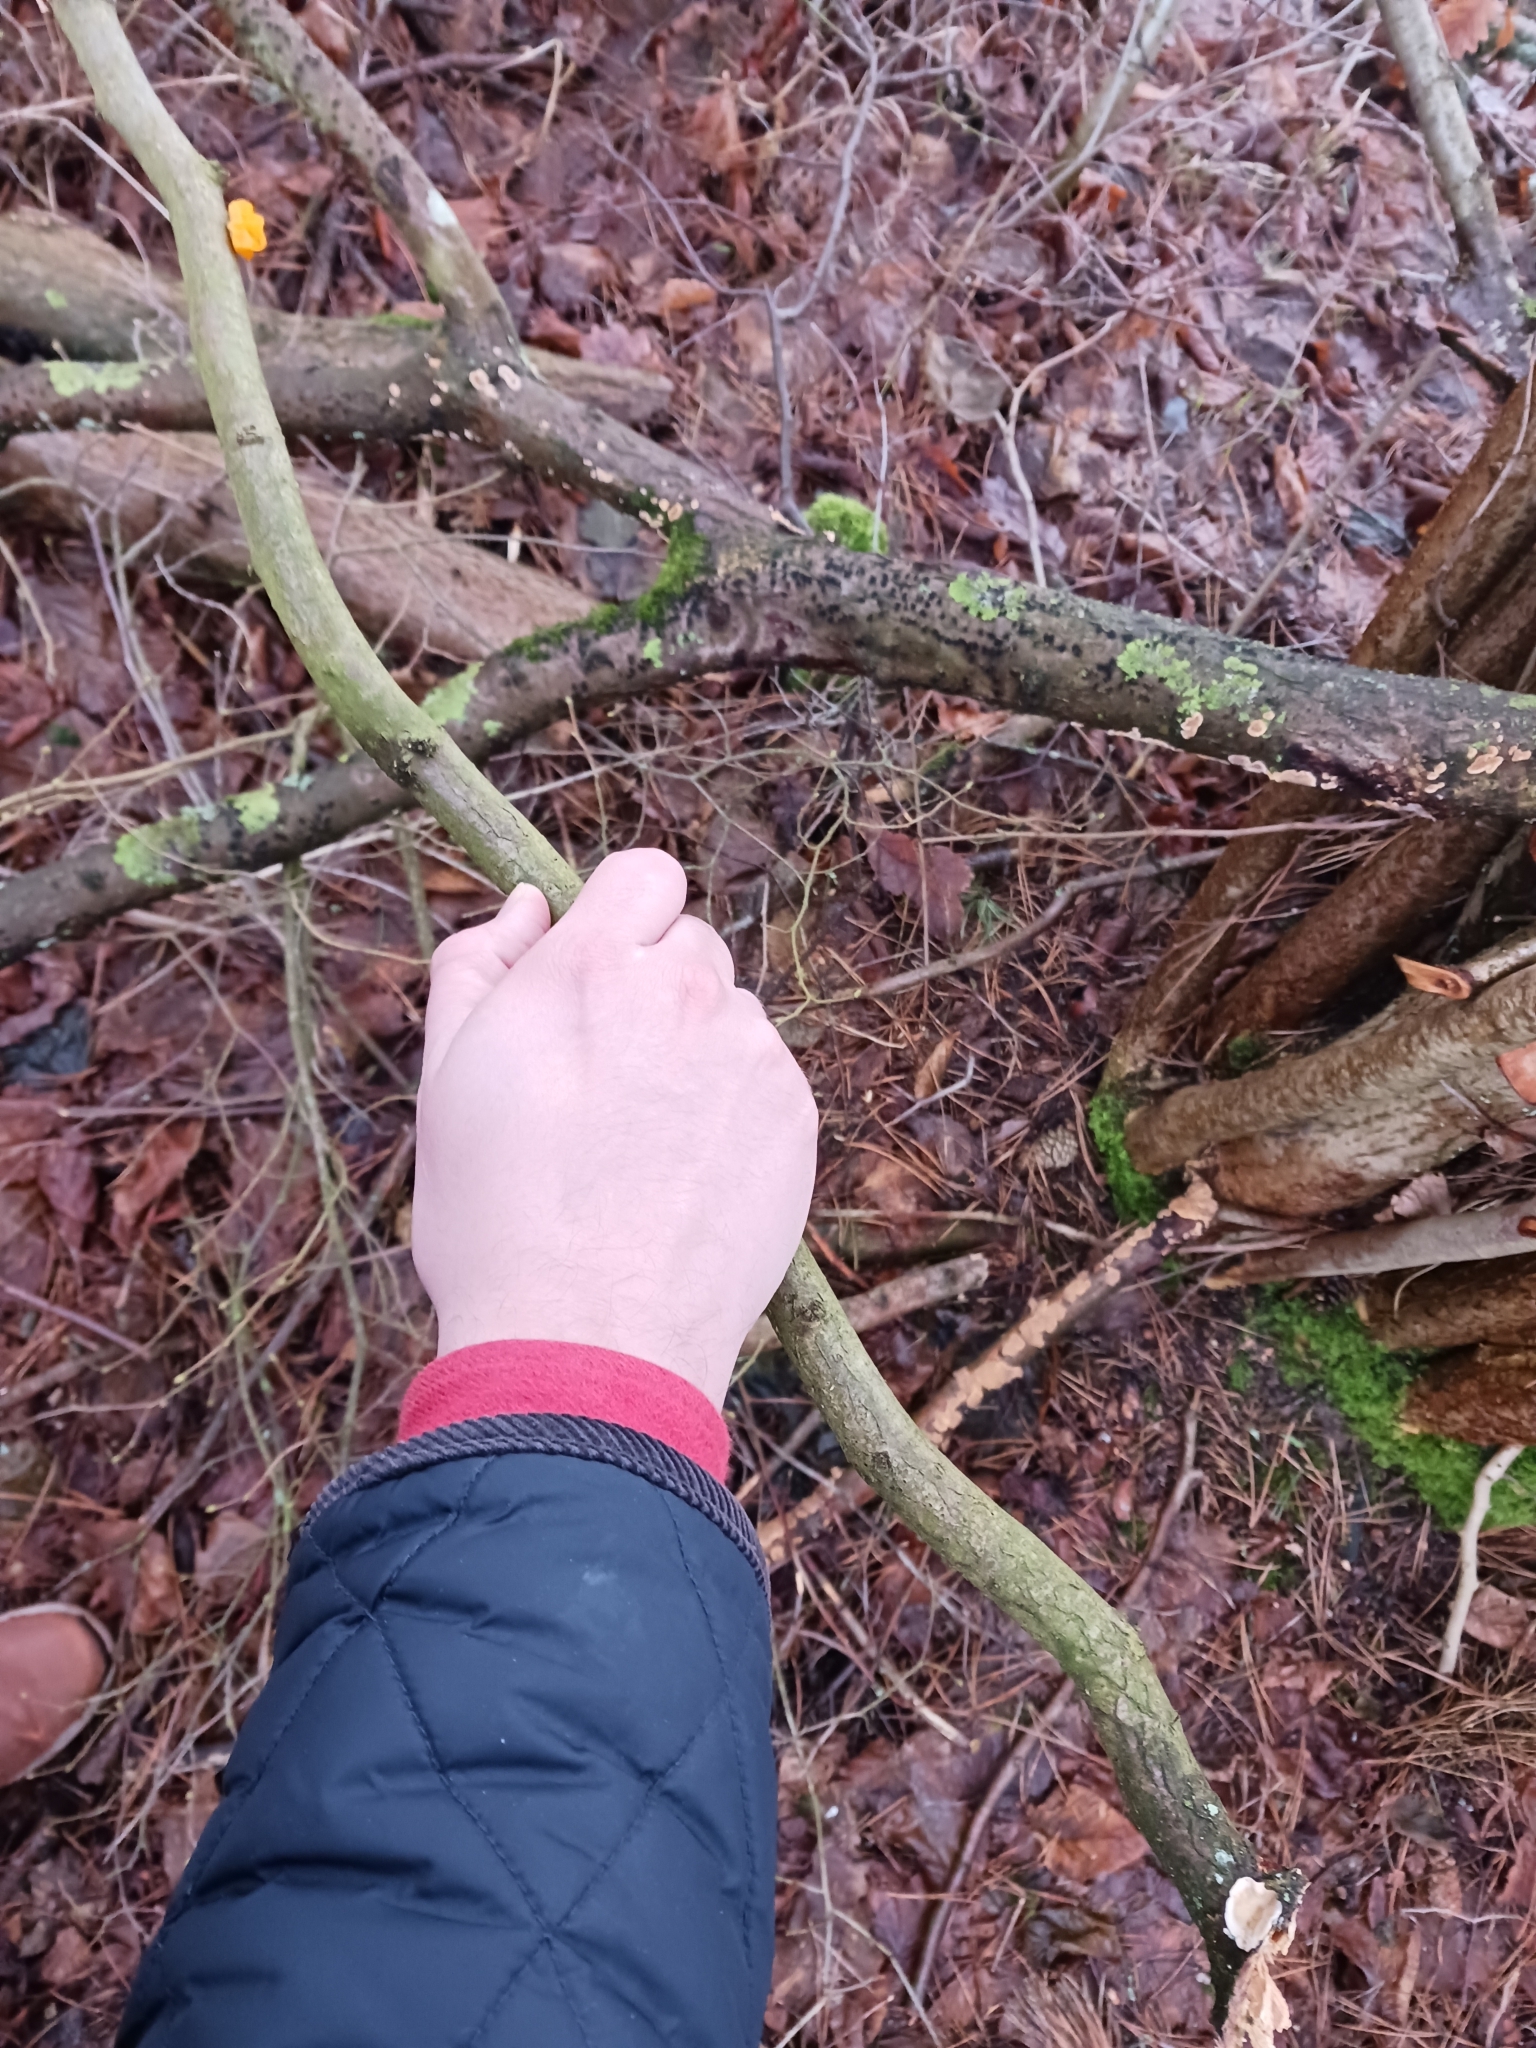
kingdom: Fungi
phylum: Basidiomycota
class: Tremellomycetes
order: Tremellales
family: Naemateliaceae
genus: Naematelia
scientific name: Naematelia aurantia
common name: Golden ear
